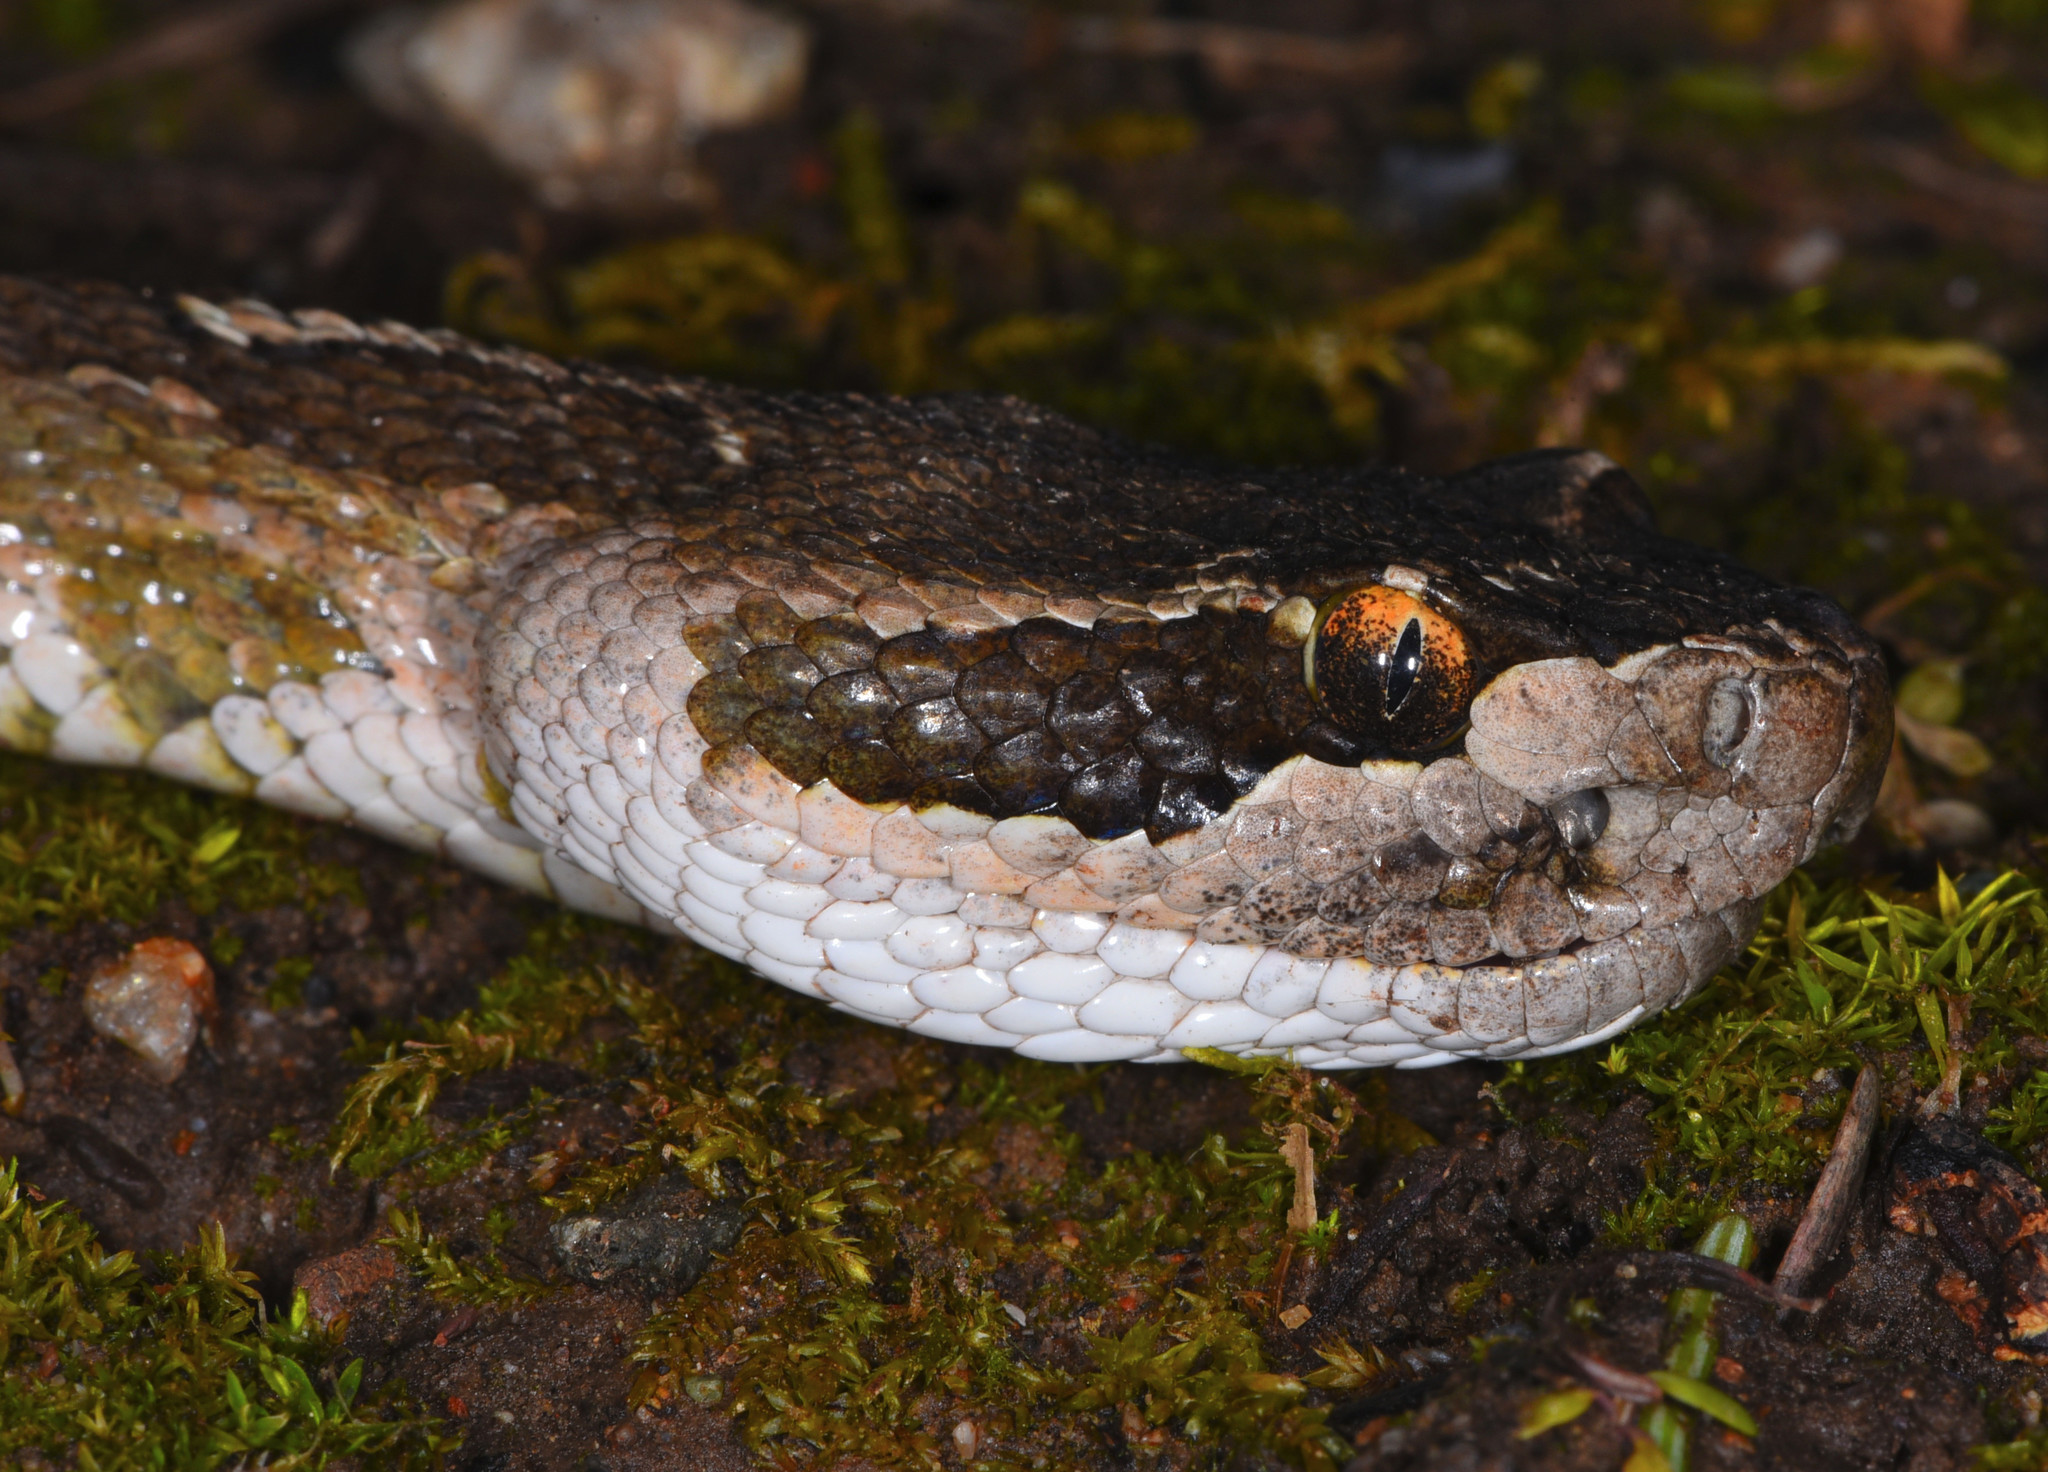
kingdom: Animalia
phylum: Chordata
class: Squamata
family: Viperidae
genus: Crotalus
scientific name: Crotalus oreganus
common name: Abyssus
